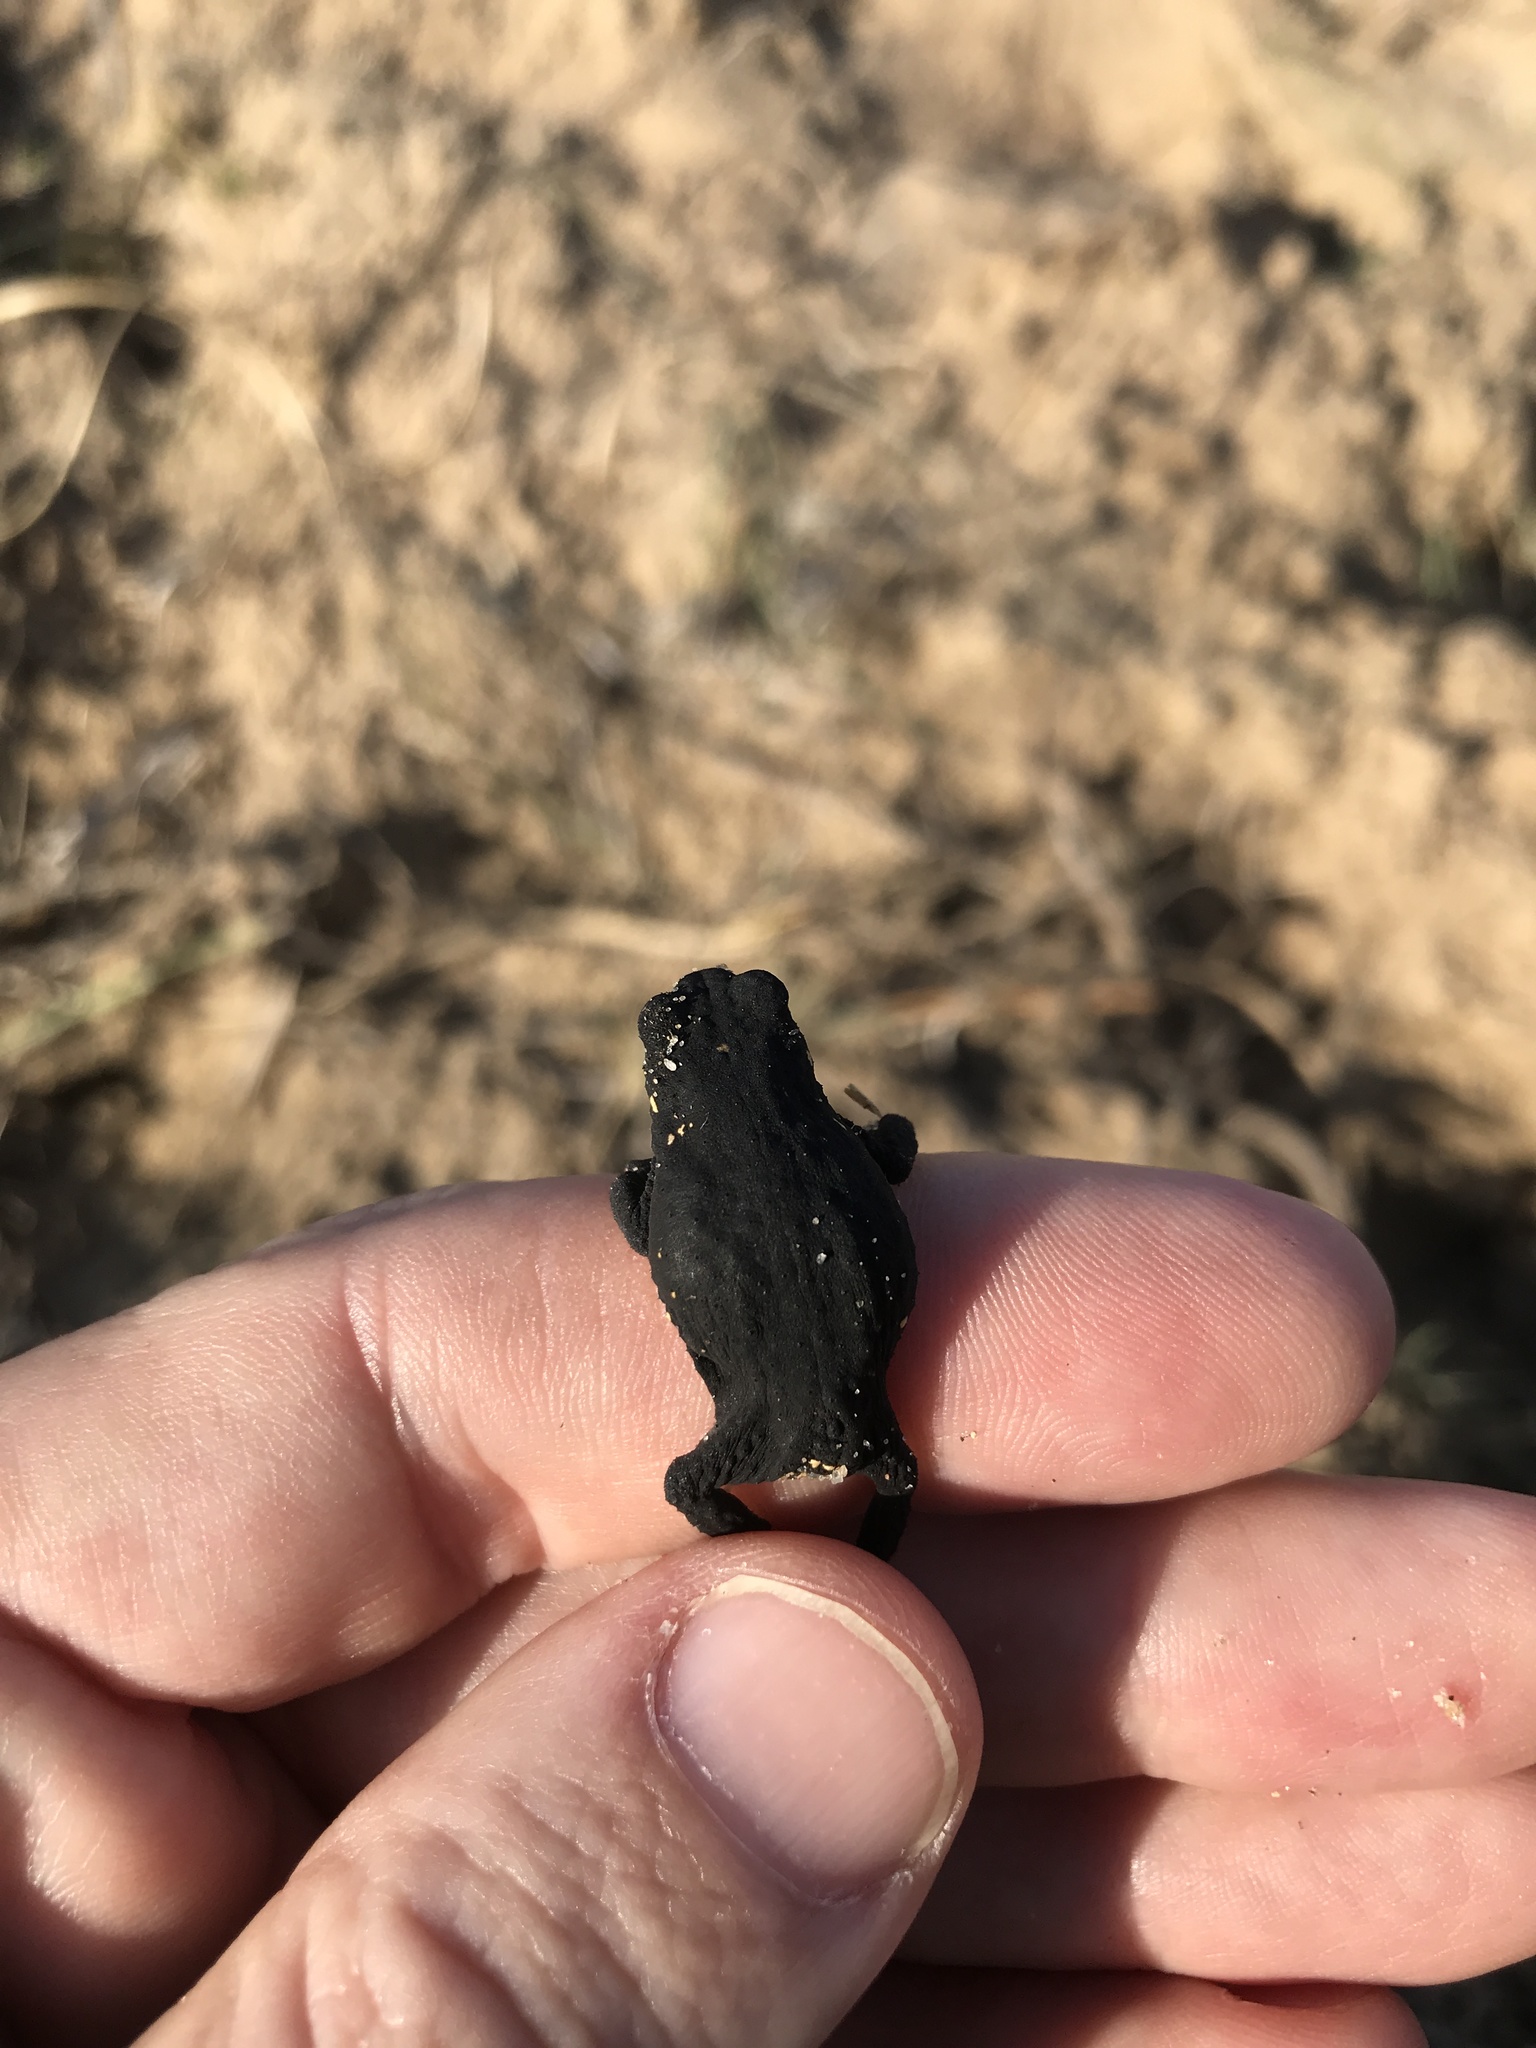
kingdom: Animalia
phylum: Chordata
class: Amphibia
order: Anura
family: Bufonidae
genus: Melanophryniscus
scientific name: Melanophryniscus montevidensis
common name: Montevideo redbelly toad
